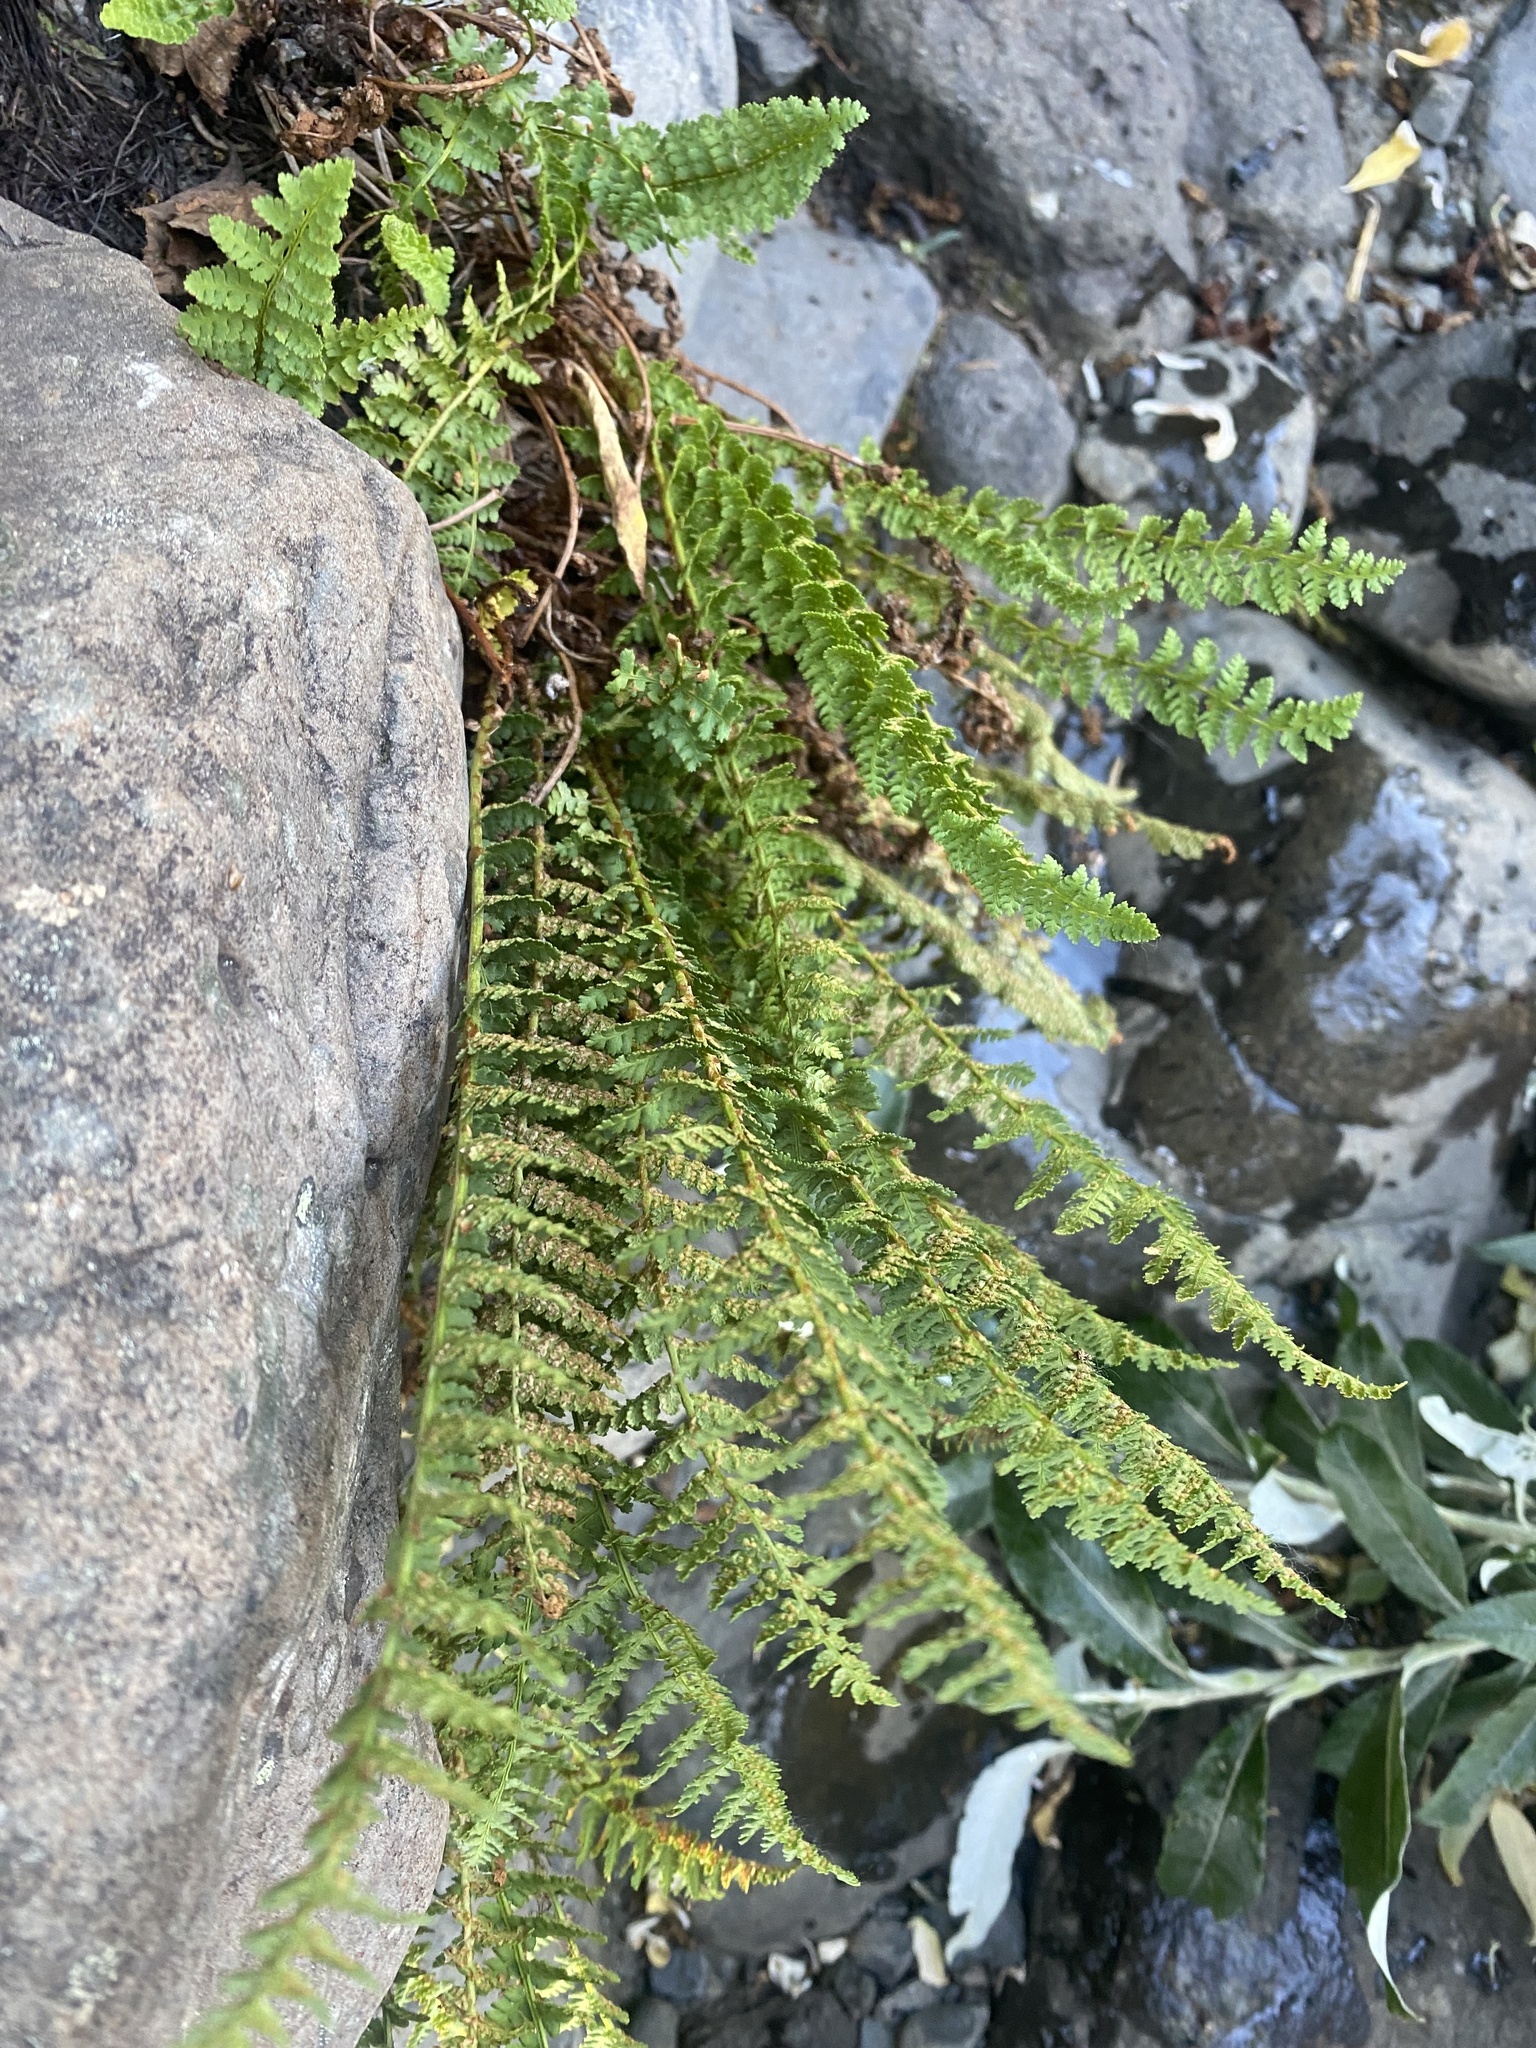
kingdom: Plantae
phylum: Tracheophyta
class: Polypodiopsida
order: Polypodiales
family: Dryopteridaceae
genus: Dryopteris
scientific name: Dryopteris fragrans
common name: Fragrant wood fern
